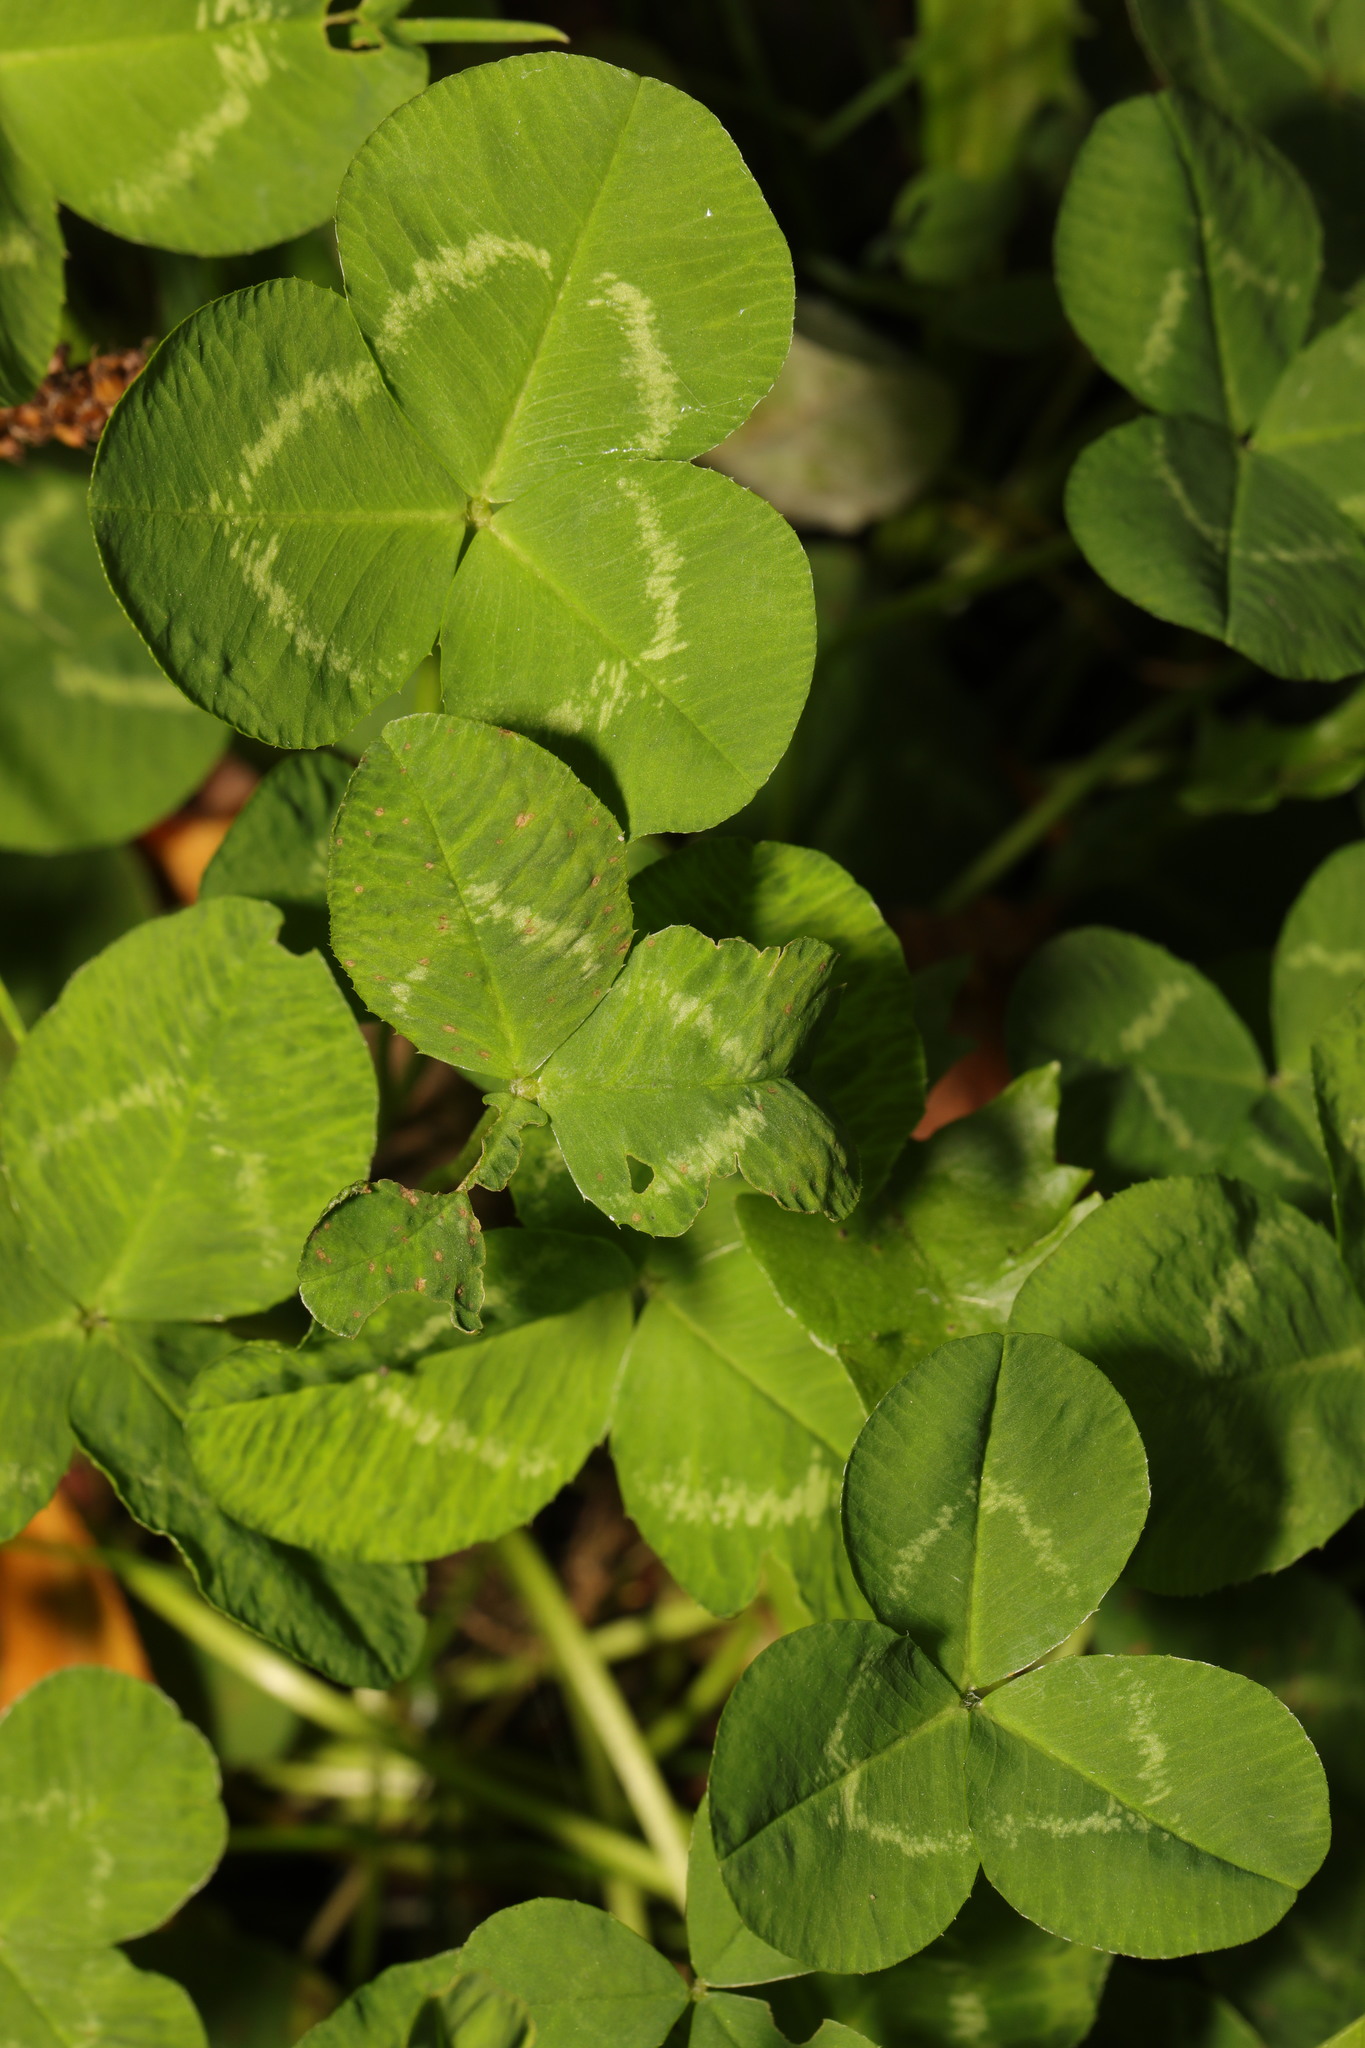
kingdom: Plantae
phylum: Tracheophyta
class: Magnoliopsida
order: Fabales
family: Fabaceae
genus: Trifolium
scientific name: Trifolium repens
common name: White clover
